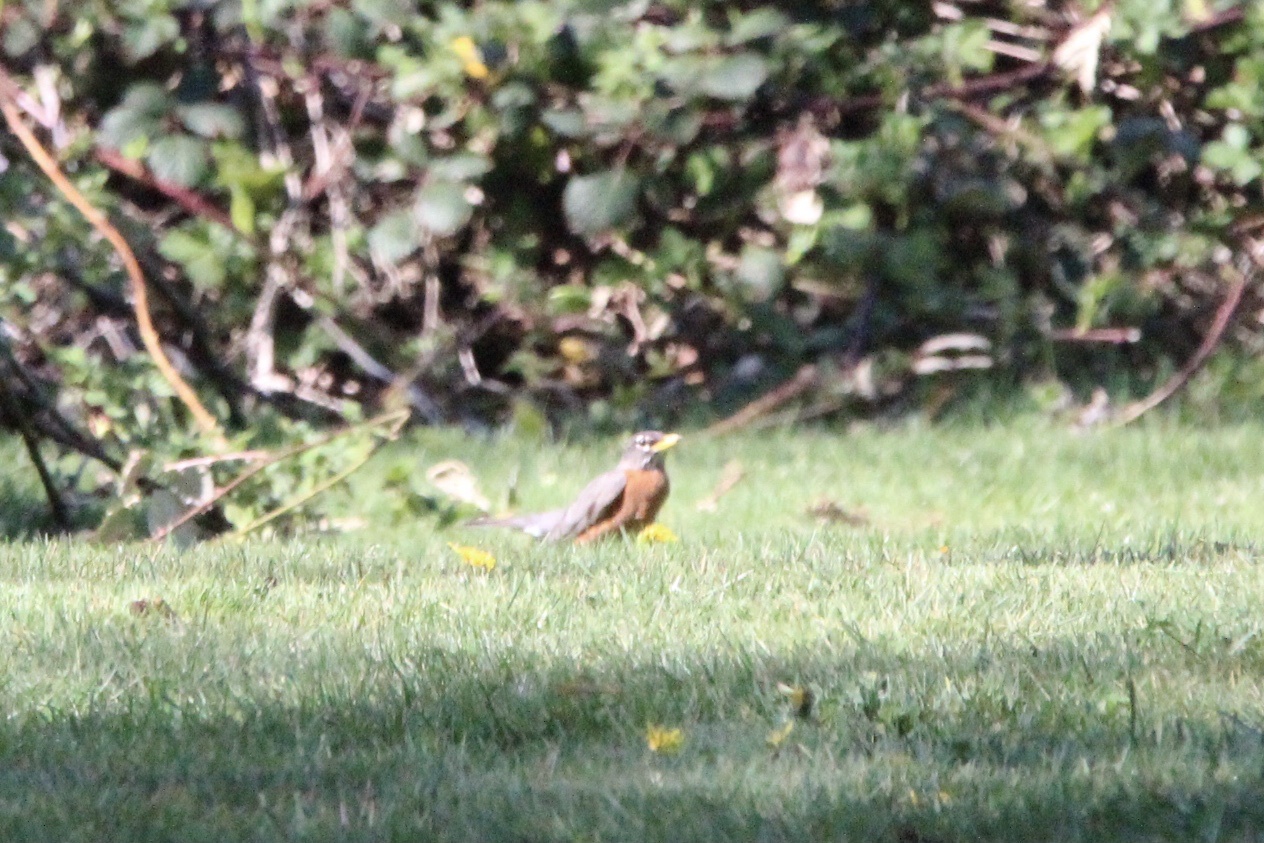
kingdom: Animalia
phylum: Chordata
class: Aves
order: Passeriformes
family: Turdidae
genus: Turdus
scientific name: Turdus migratorius
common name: American robin
